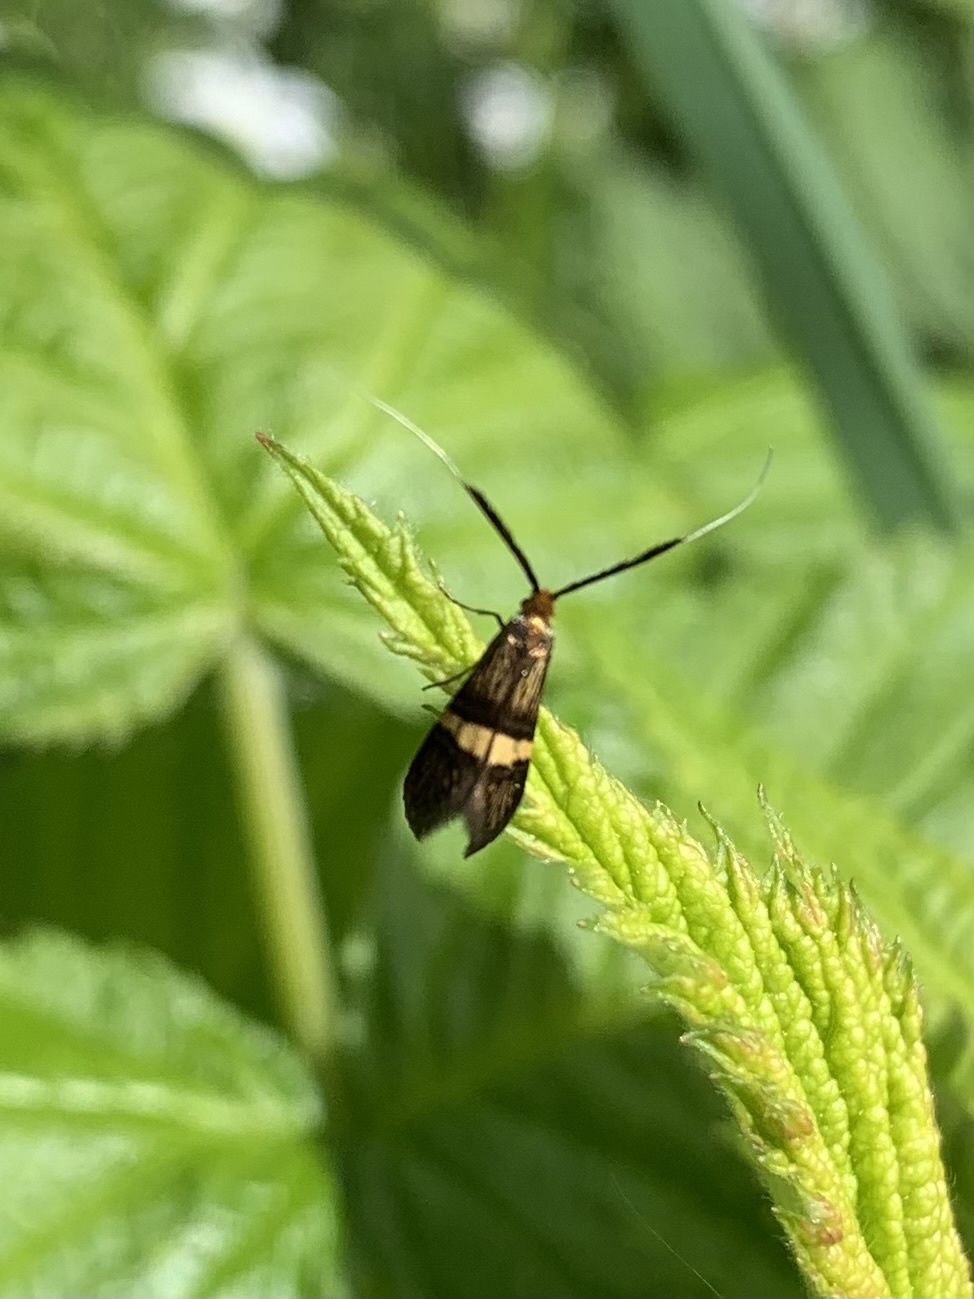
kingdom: Animalia
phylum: Arthropoda
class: Insecta
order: Lepidoptera
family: Adelidae
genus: Adela
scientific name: Adela croesella
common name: Small barred long-horn
